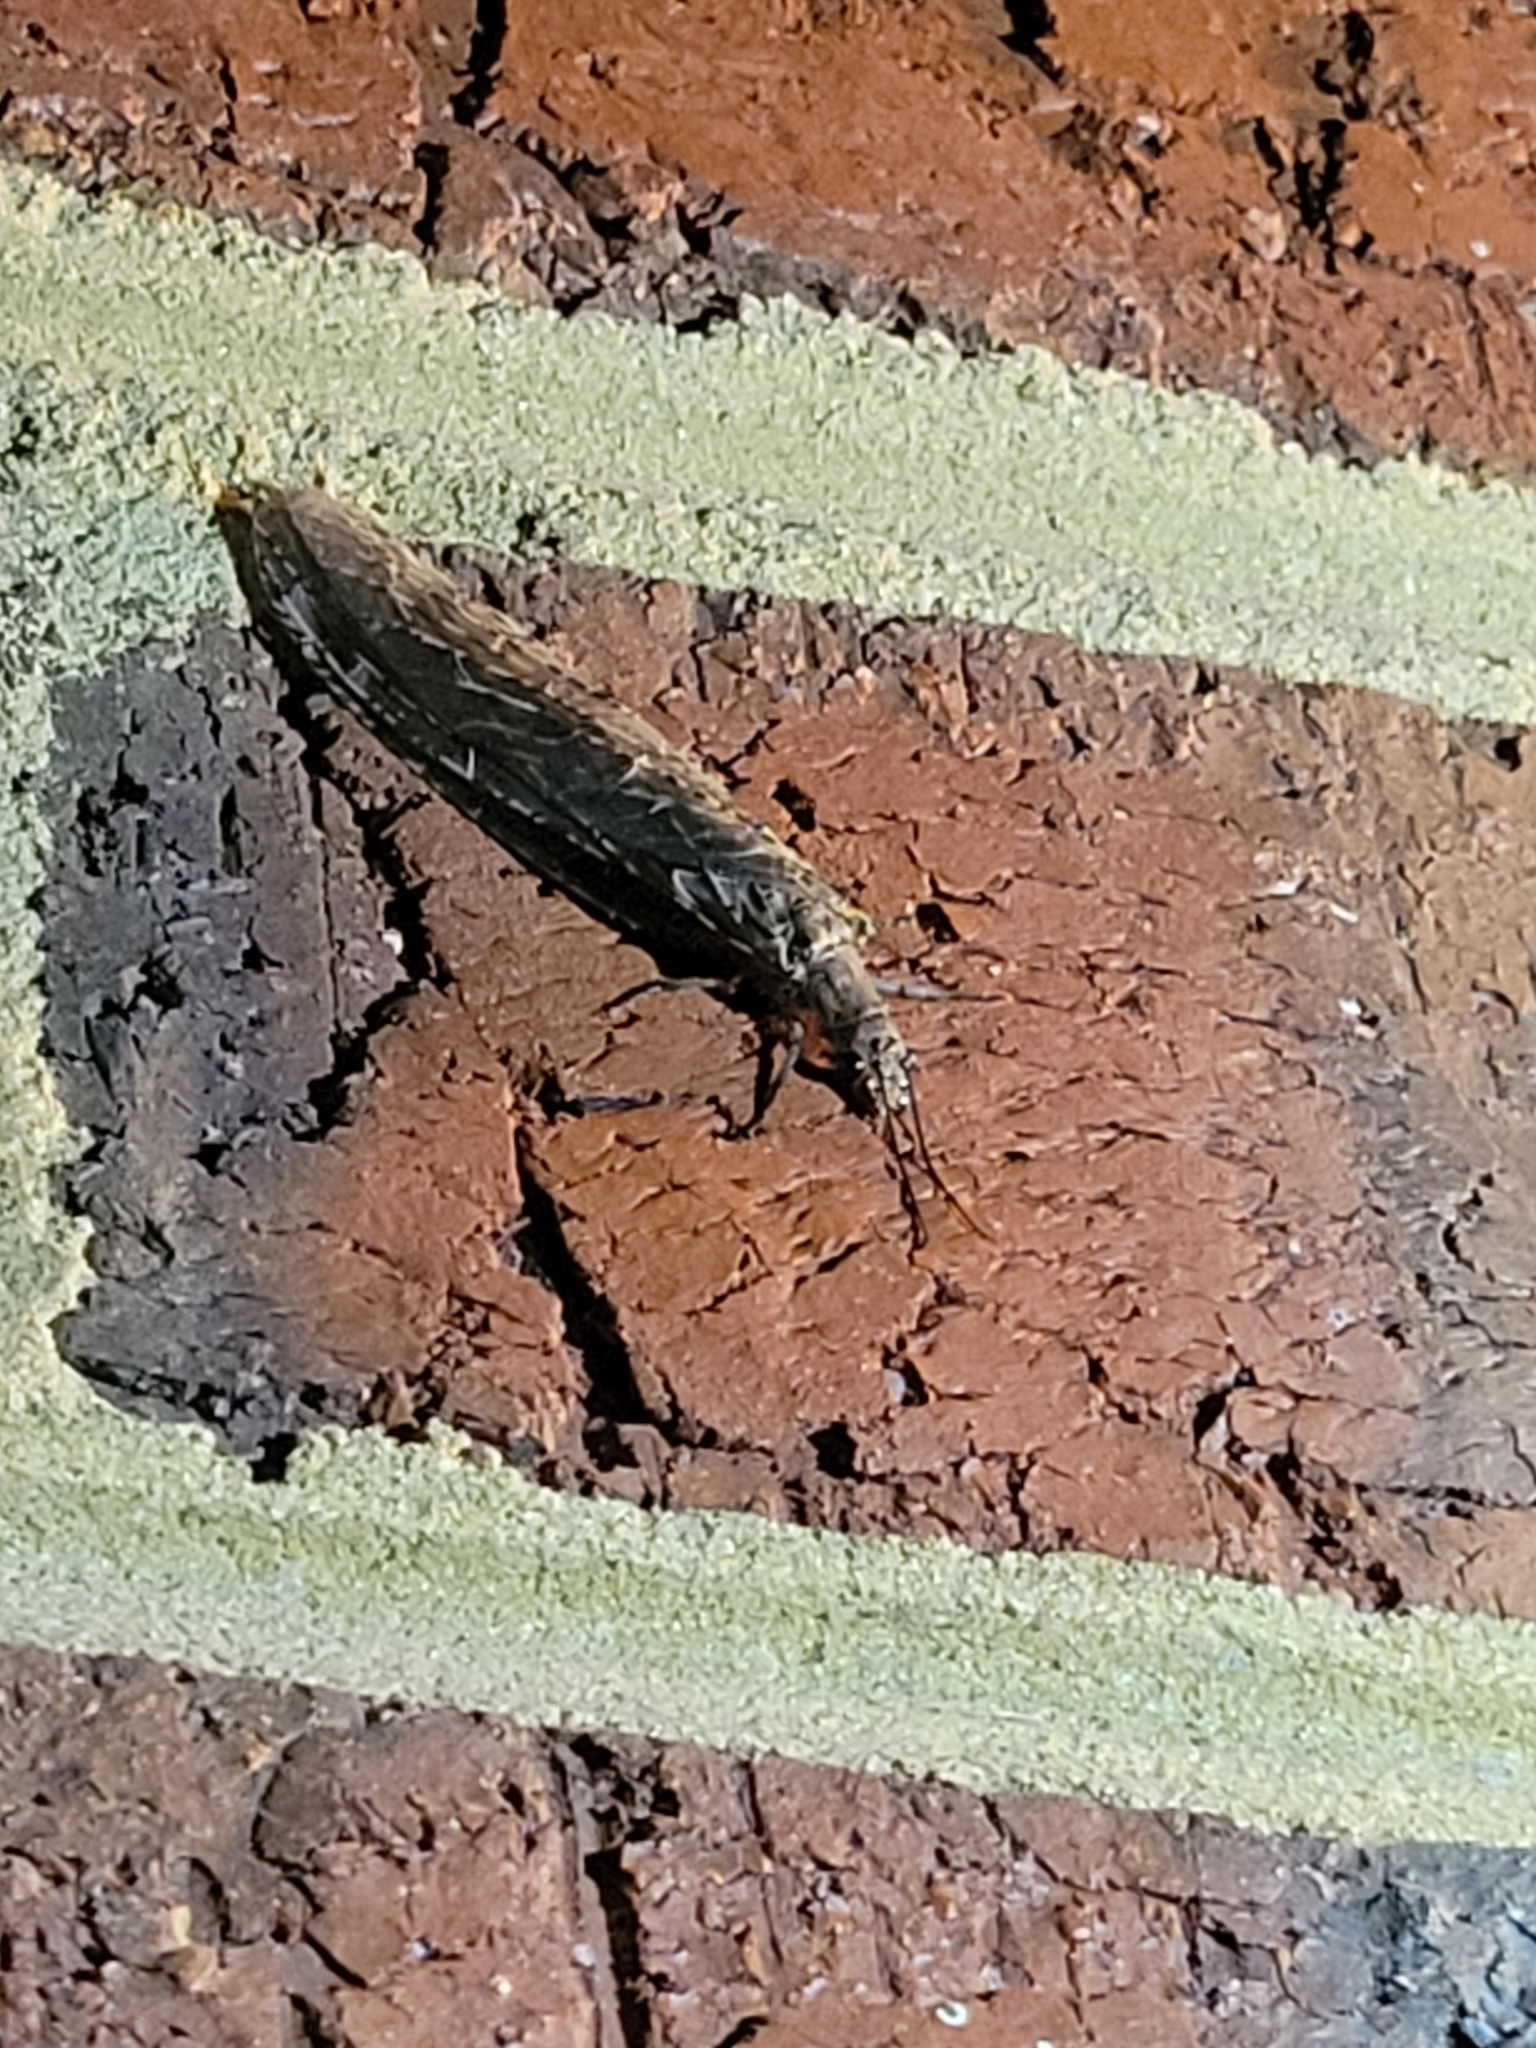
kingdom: Animalia
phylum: Arthropoda
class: Insecta
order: Megaloptera
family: Corydalidae
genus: Chauliodes
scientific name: Chauliodes rastricornis
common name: Spring fishfly
